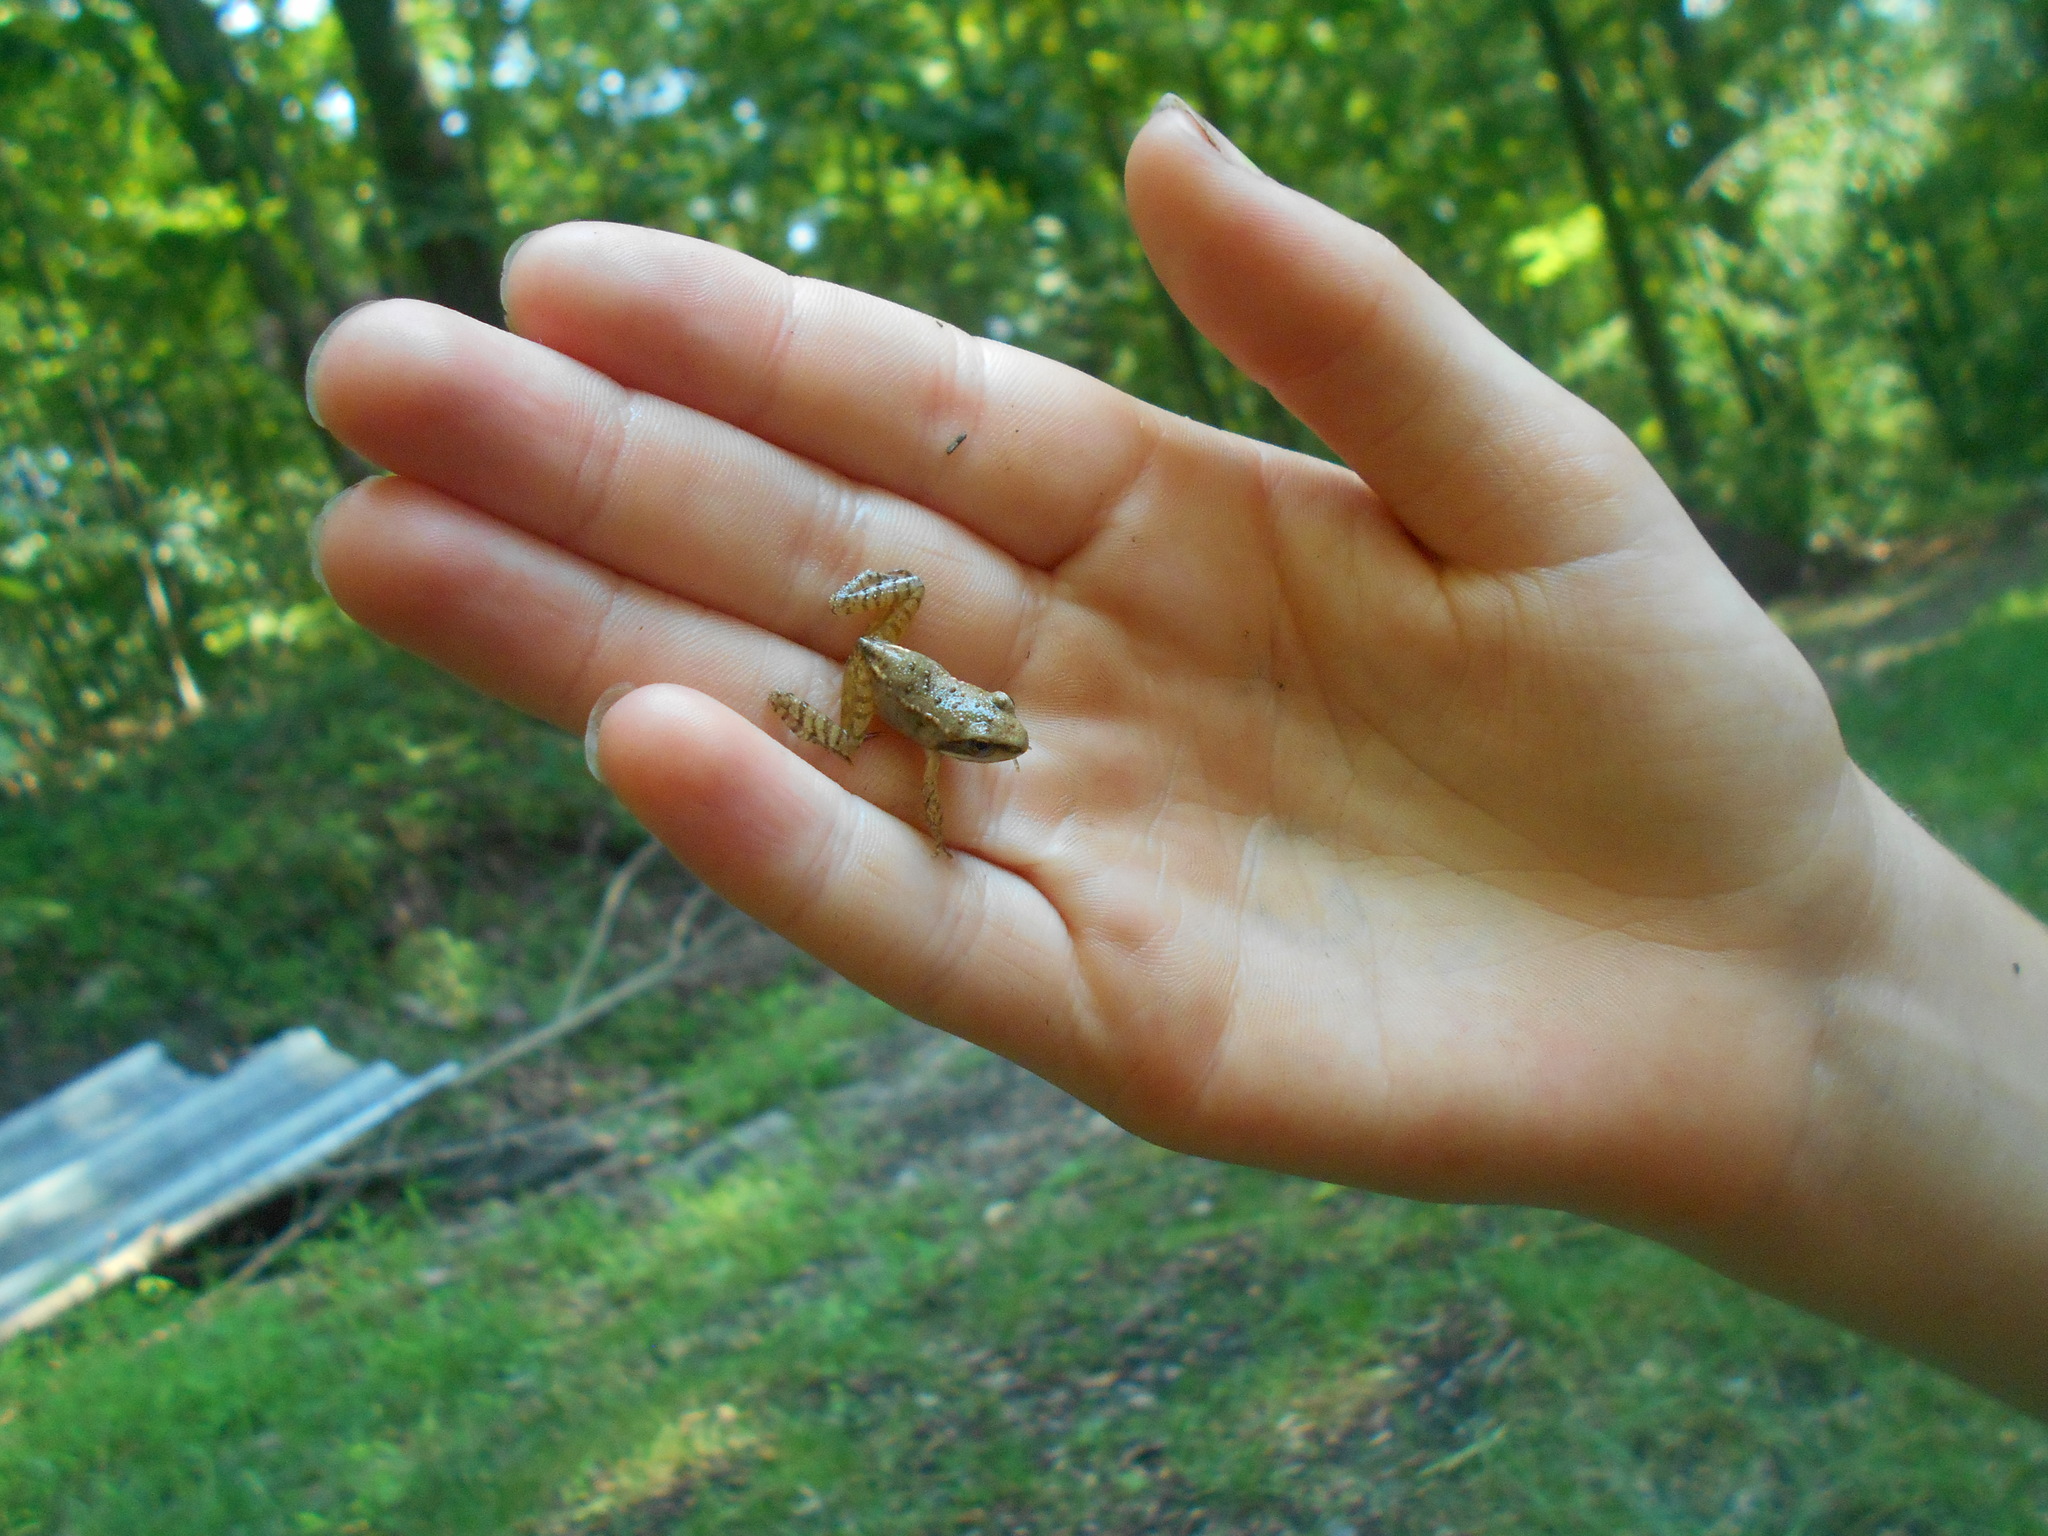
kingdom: Animalia
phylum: Chordata
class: Amphibia
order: Anura
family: Ranidae
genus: Lithobates
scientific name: Lithobates sylvaticus
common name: Wood frog
